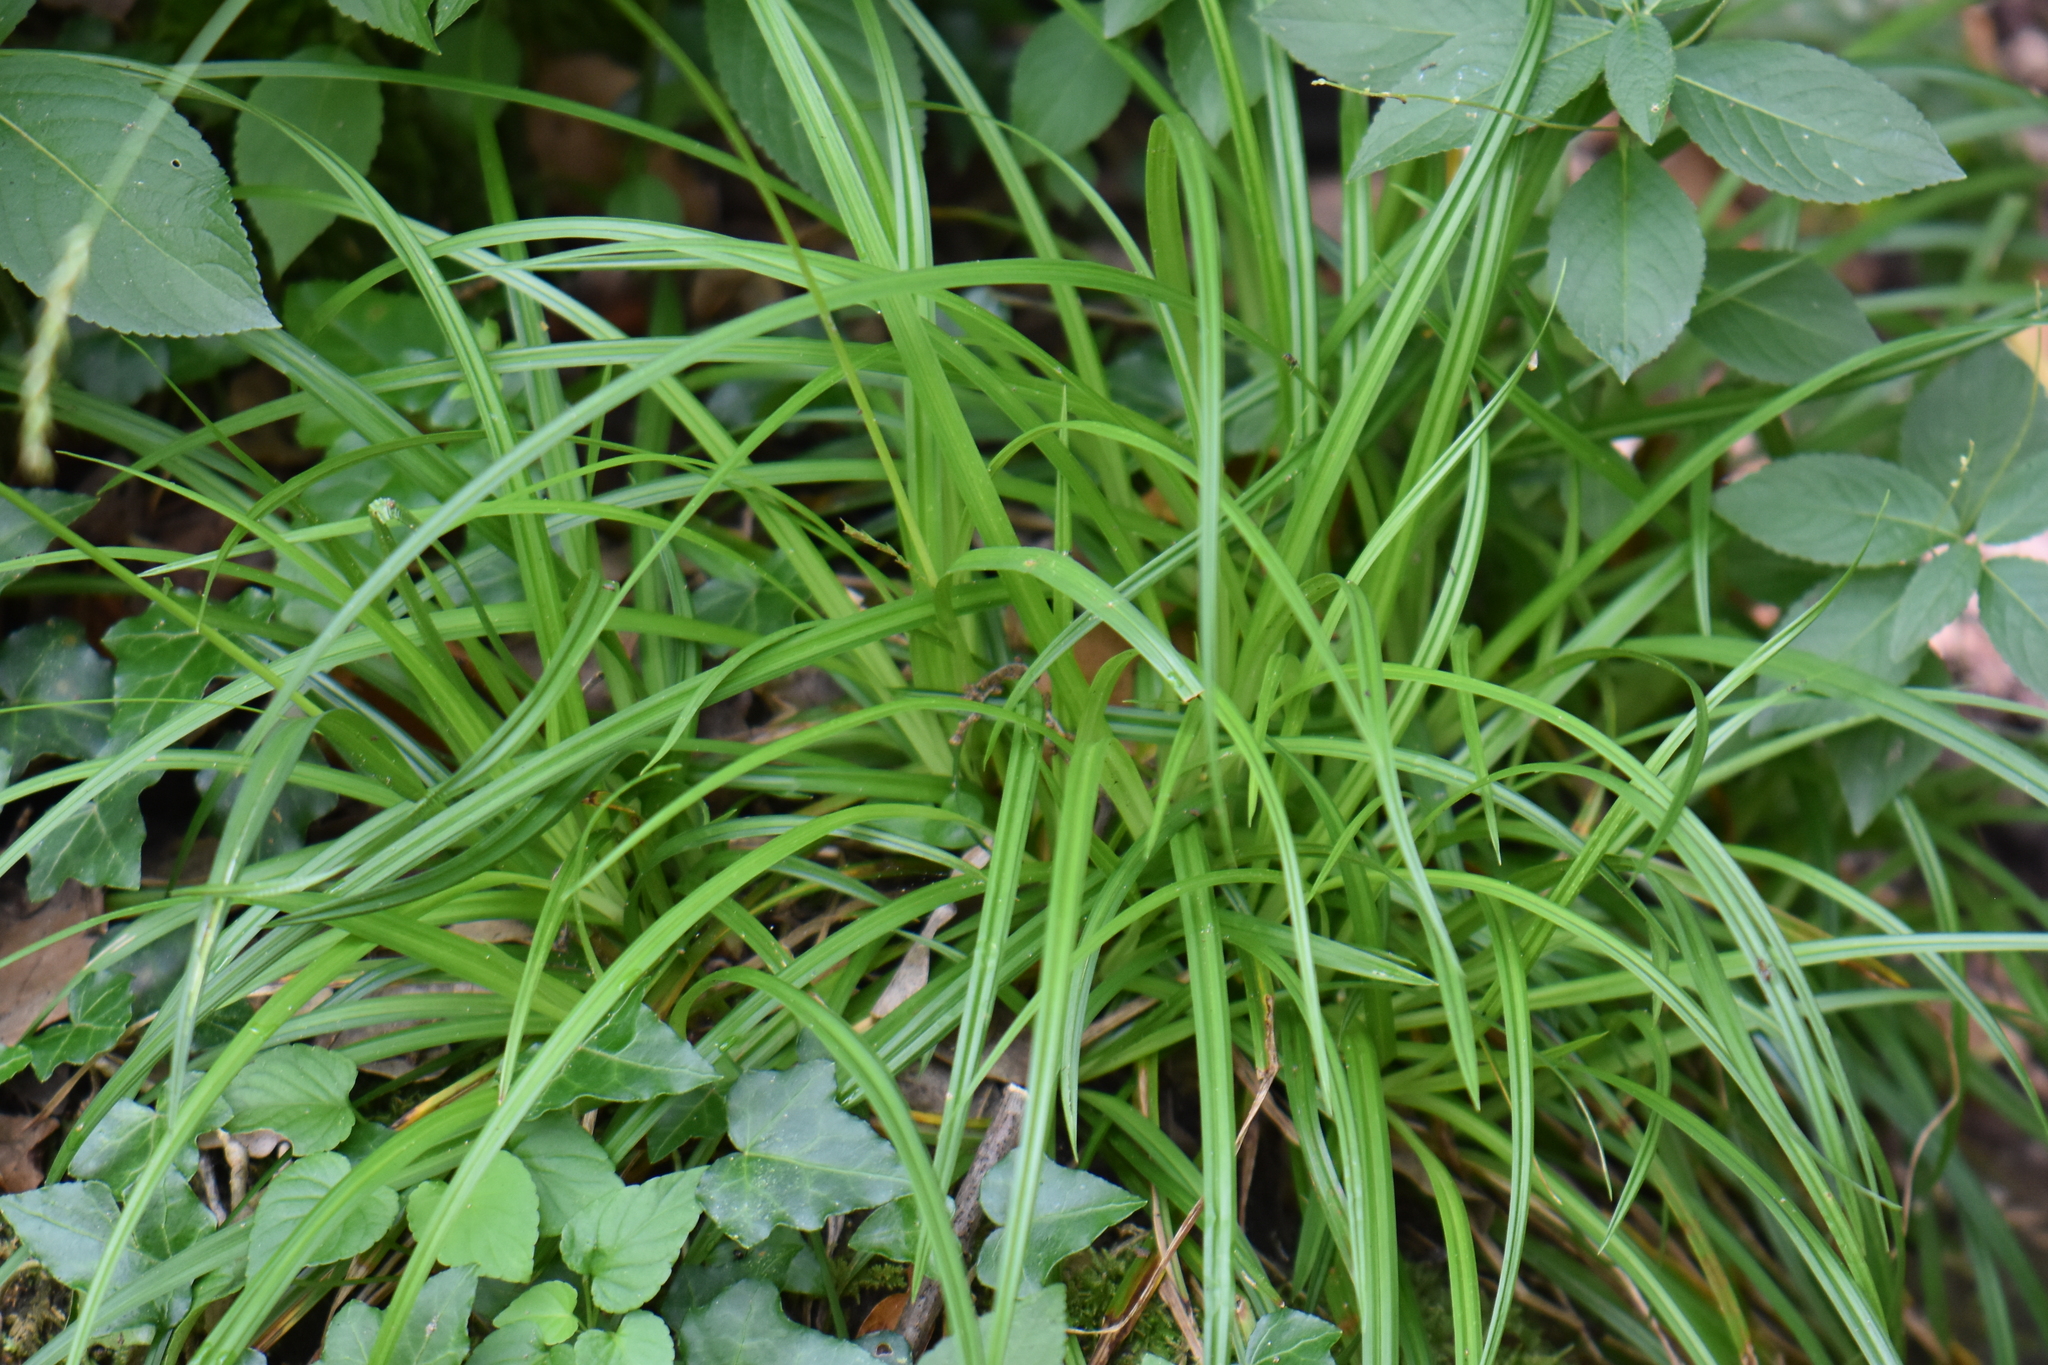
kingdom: Plantae
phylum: Tracheophyta
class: Liliopsida
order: Poales
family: Cyperaceae
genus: Carex
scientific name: Carex sylvatica
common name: Wood-sedge
